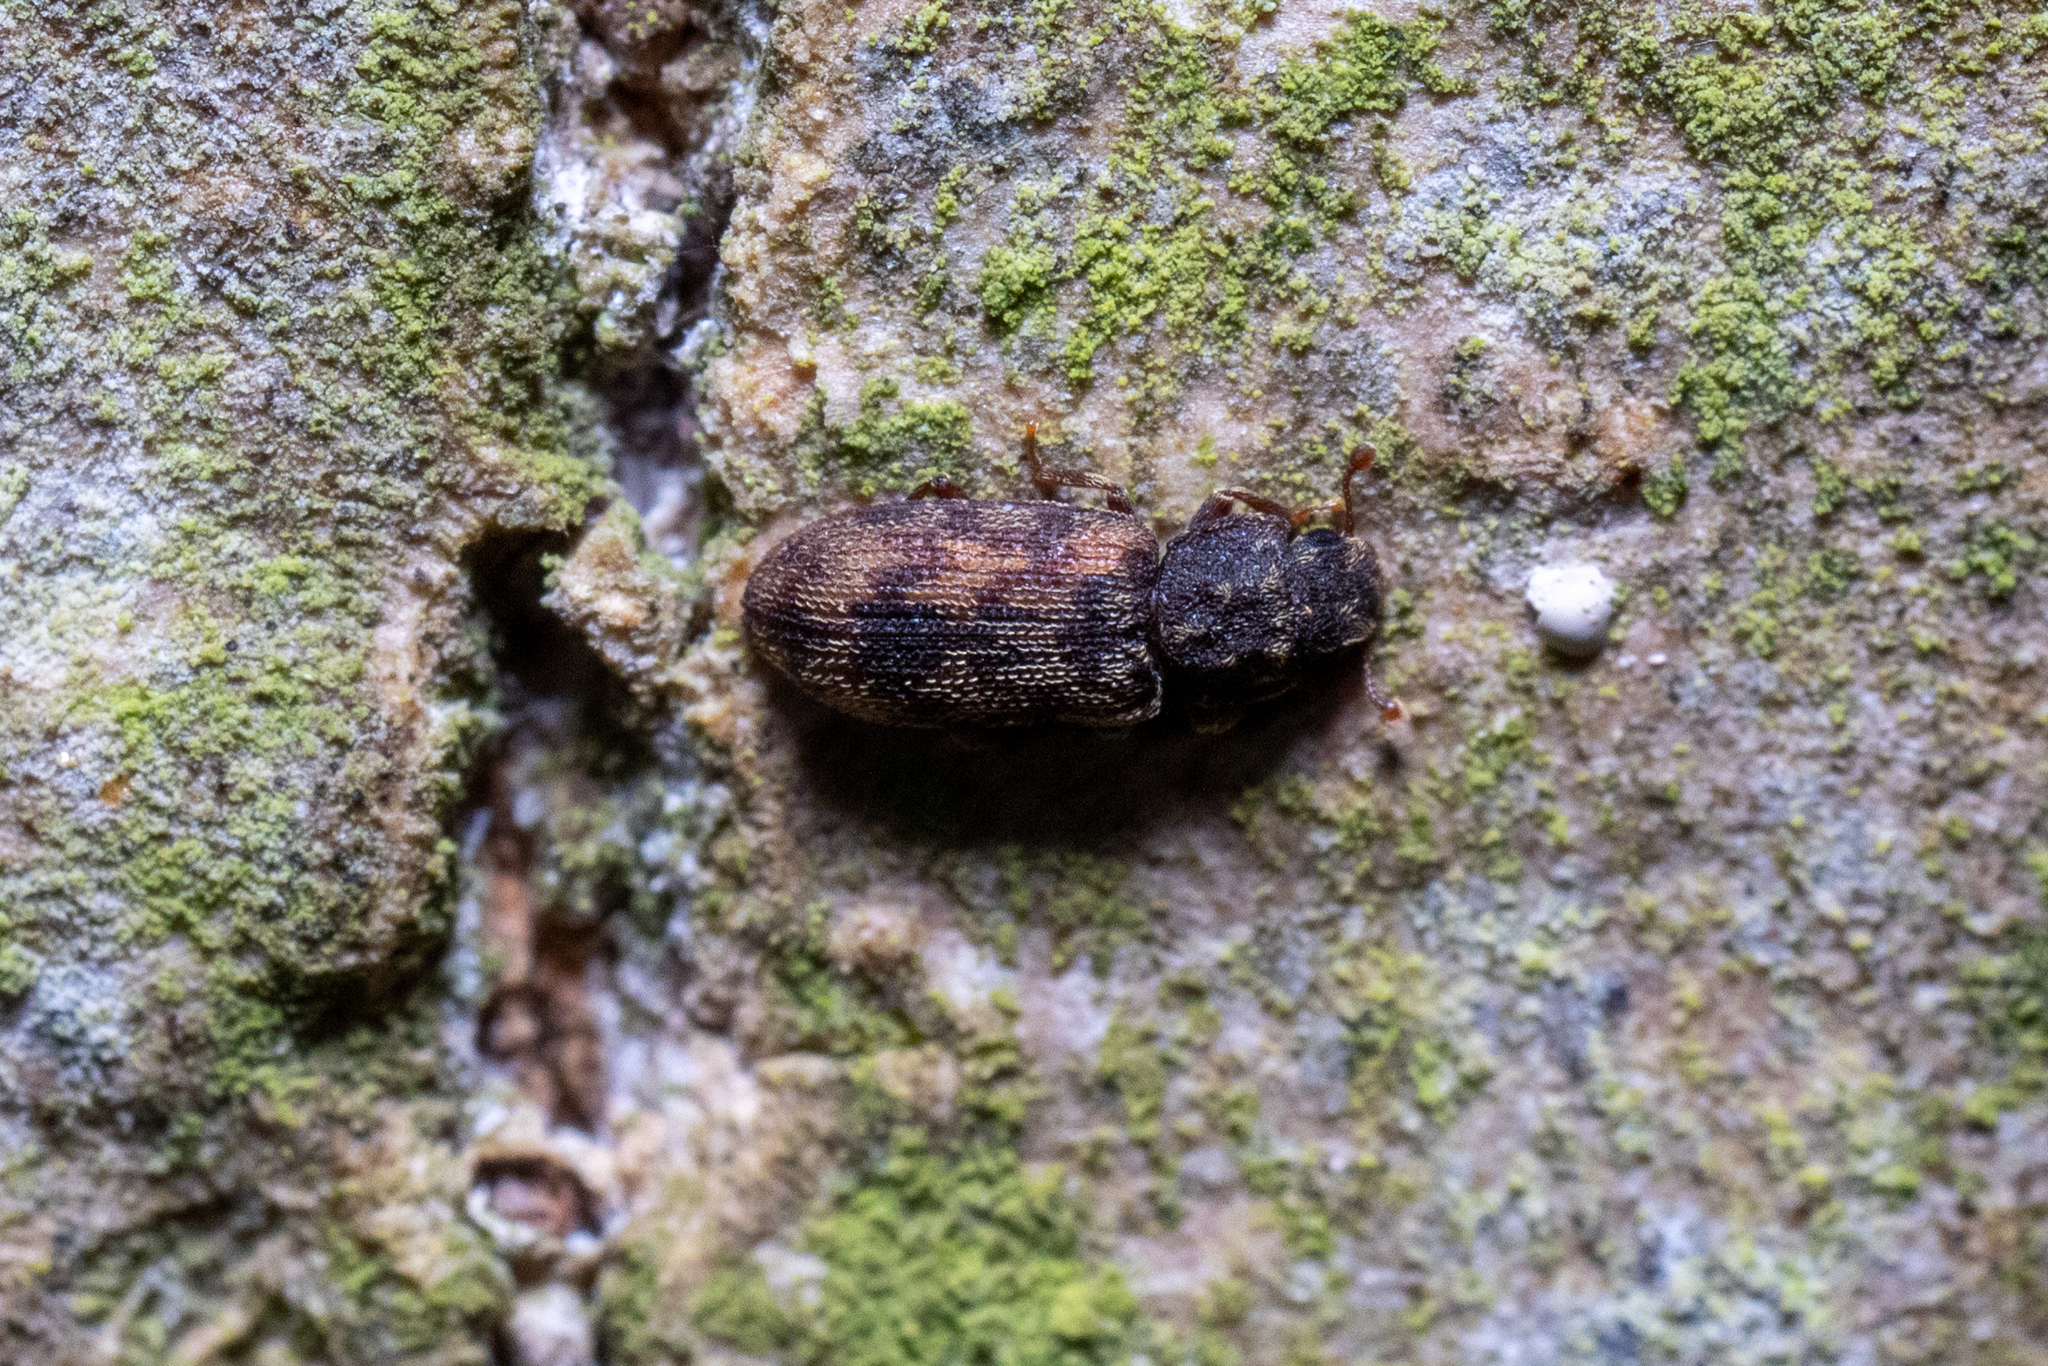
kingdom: Animalia
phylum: Arthropoda
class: Insecta
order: Coleoptera
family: Zopheridae
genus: Synchita
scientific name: Synchita undata
